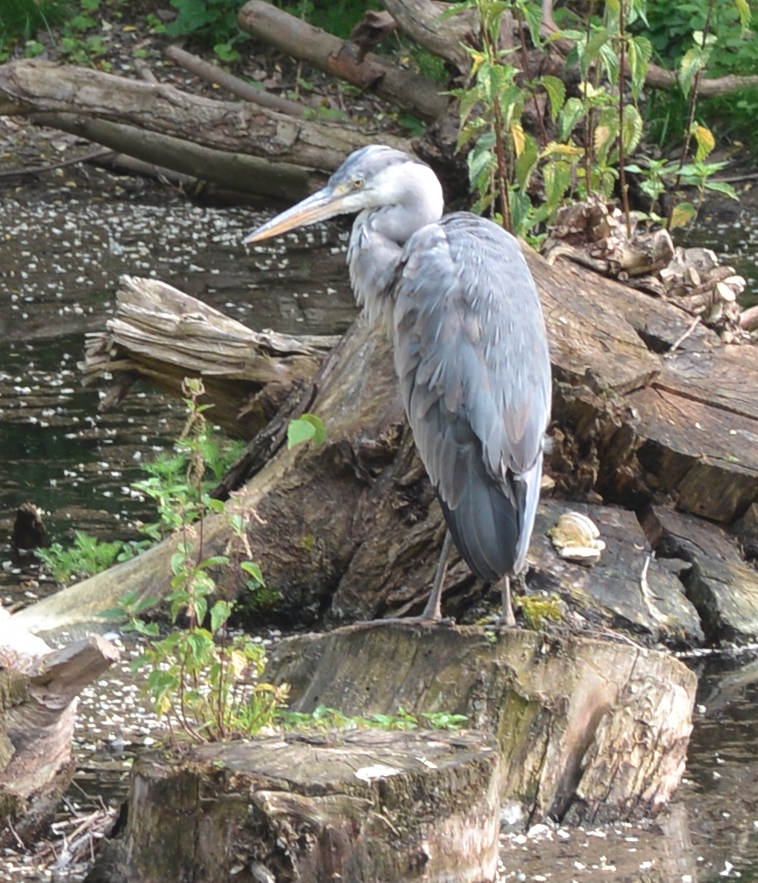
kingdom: Animalia
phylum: Chordata
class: Aves
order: Pelecaniformes
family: Ardeidae
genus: Ardea
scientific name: Ardea cinerea
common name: Grey heron
